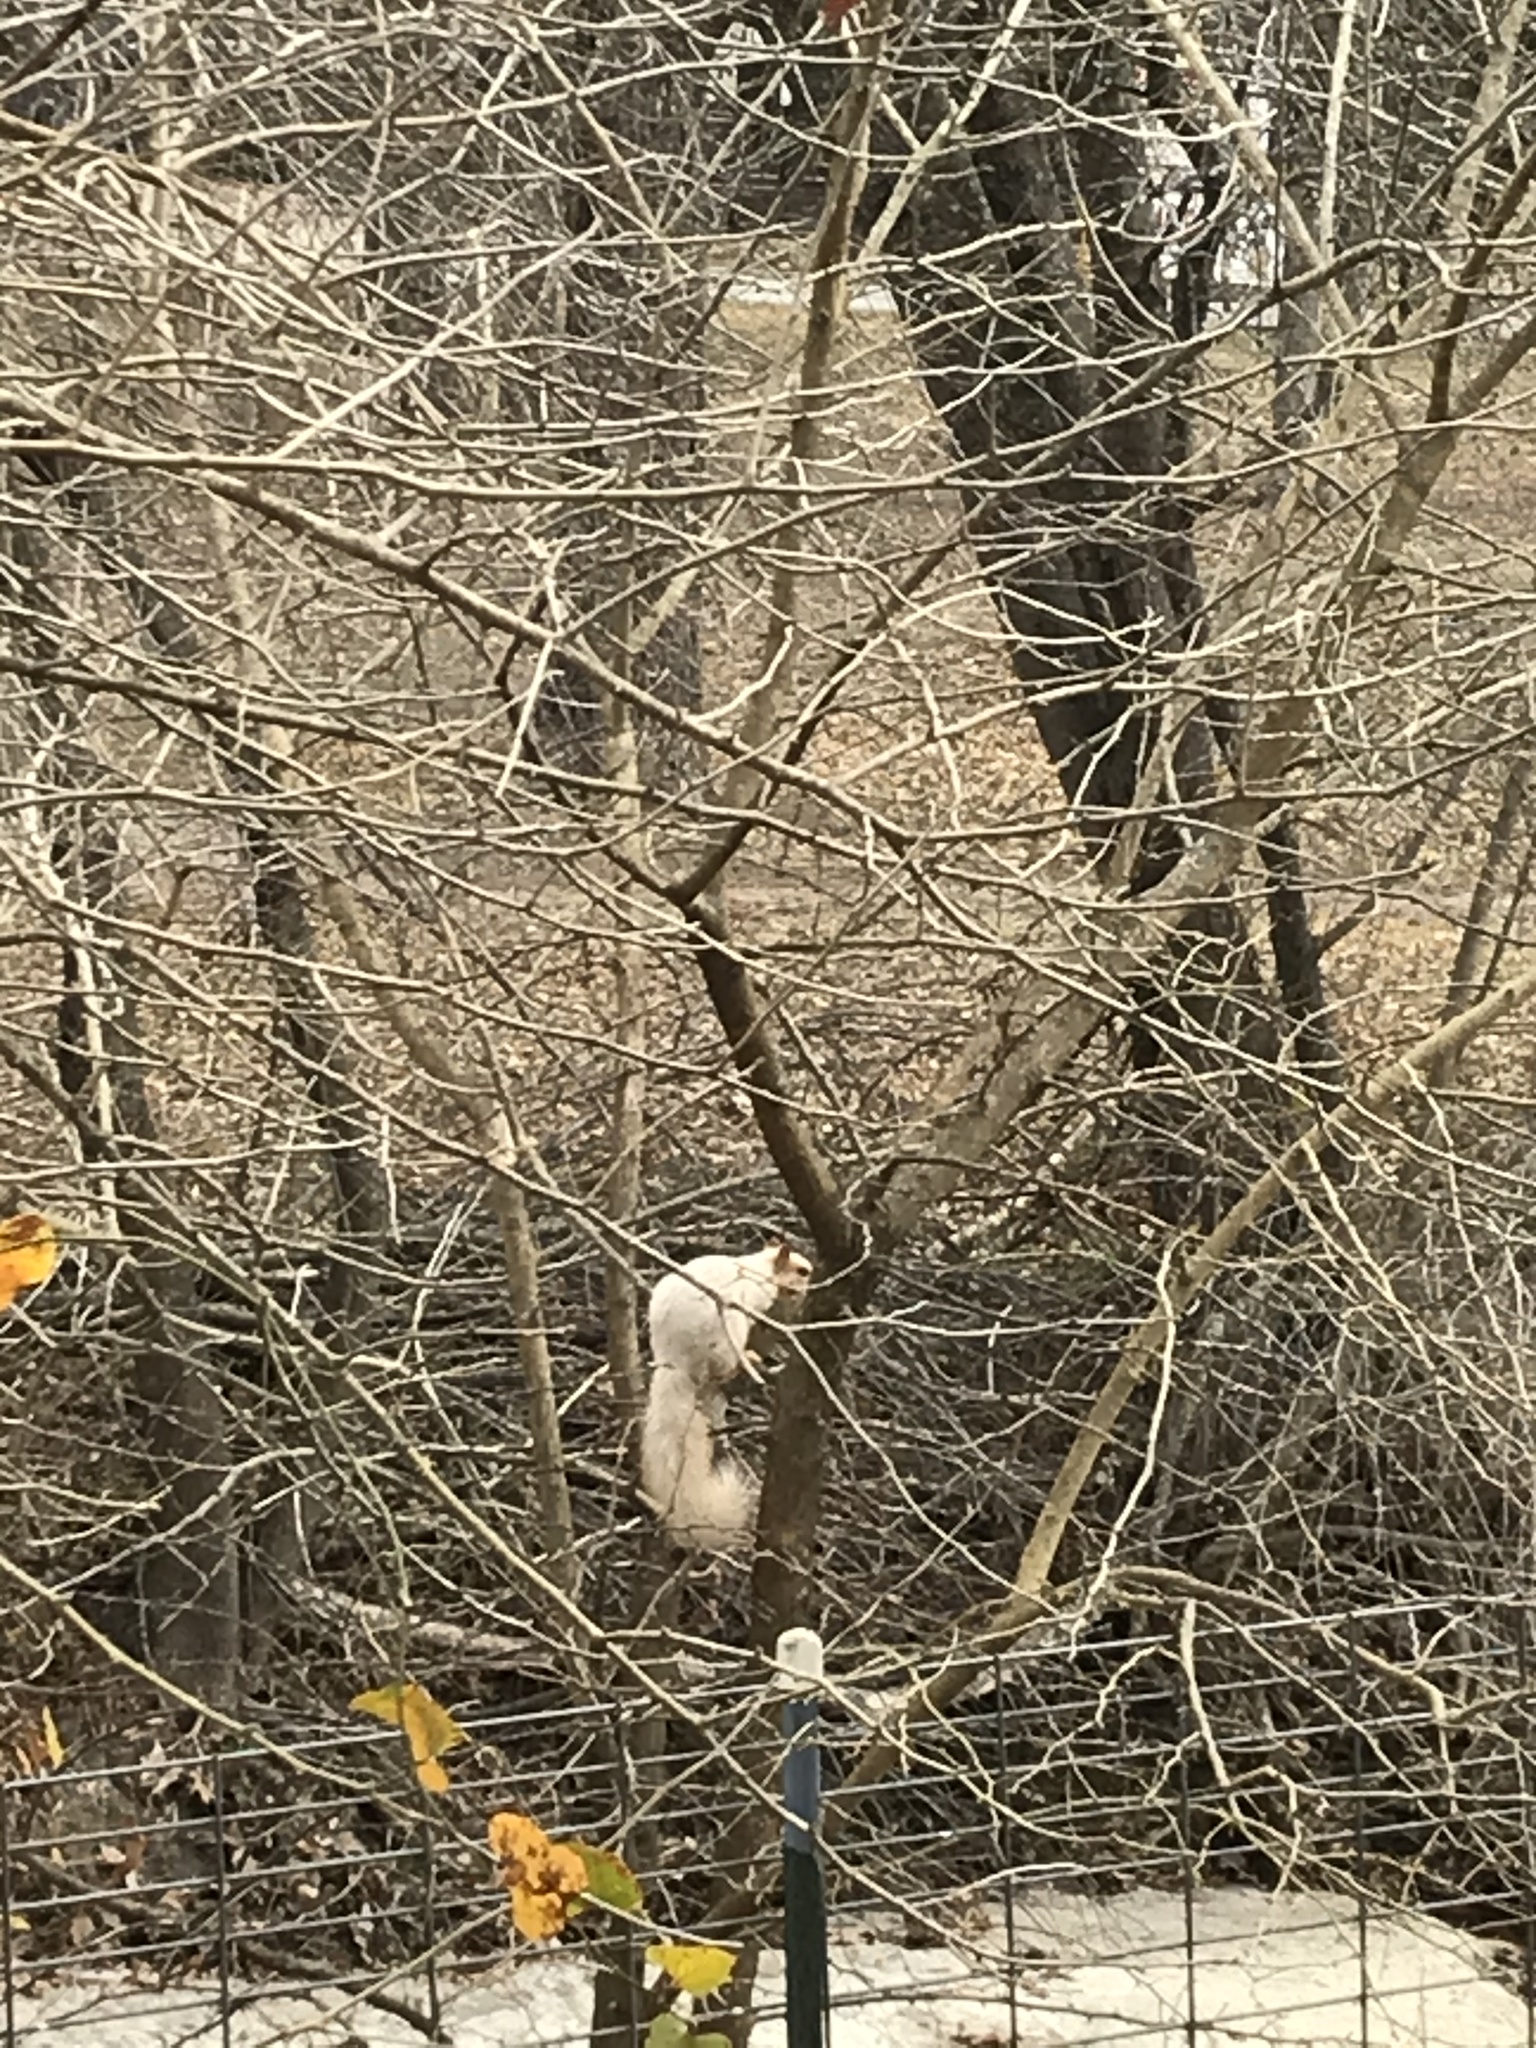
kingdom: Animalia
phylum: Chordata
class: Mammalia
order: Rodentia
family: Sciuridae
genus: Sciurus
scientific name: Sciurus niger
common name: Fox squirrel
